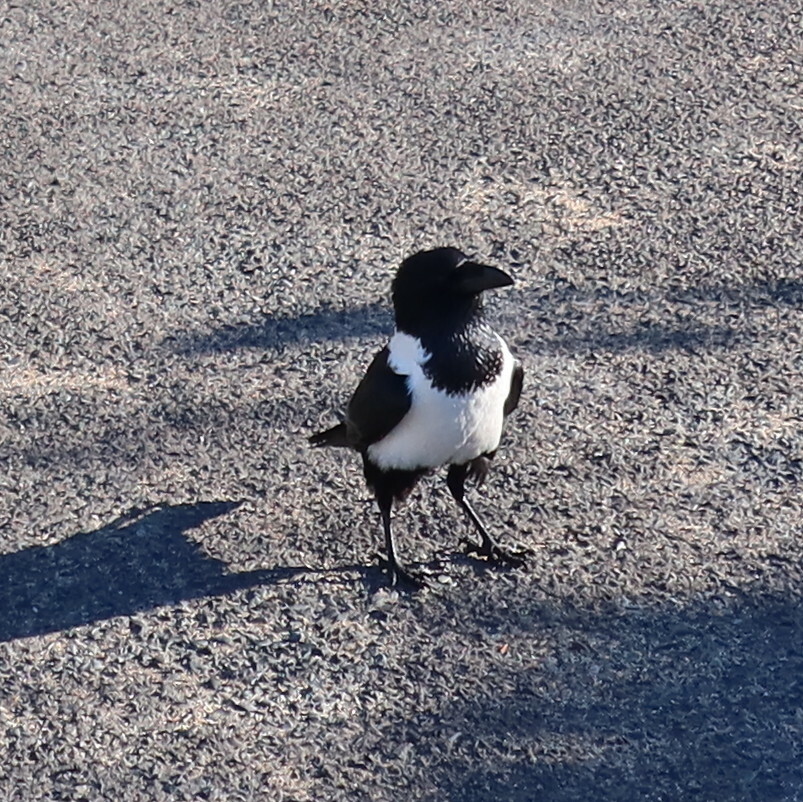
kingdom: Animalia
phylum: Chordata
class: Aves
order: Passeriformes
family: Corvidae
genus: Corvus
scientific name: Corvus albus
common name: Pied crow
